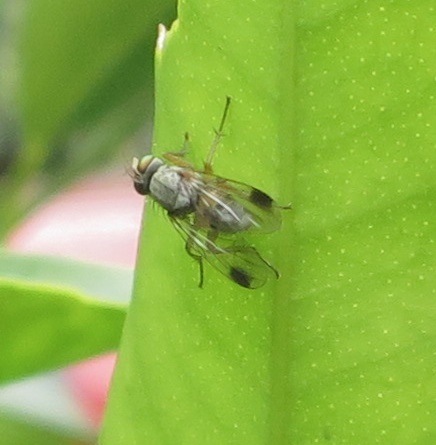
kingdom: Animalia
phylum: Arthropoda
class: Insecta
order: Diptera
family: Muscidae
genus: Pygophora
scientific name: Pygophora apicalis
